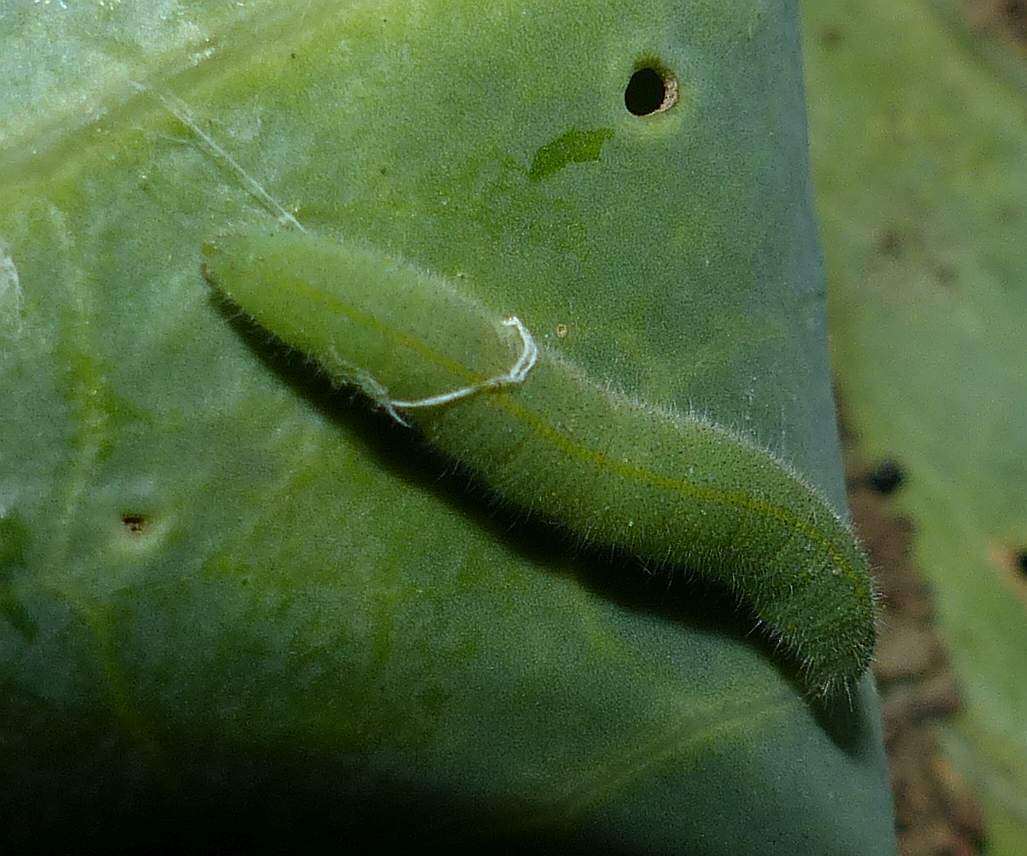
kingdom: Animalia
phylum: Arthropoda
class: Insecta
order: Lepidoptera
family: Pieridae
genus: Pieris
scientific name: Pieris rapae
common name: Small white
